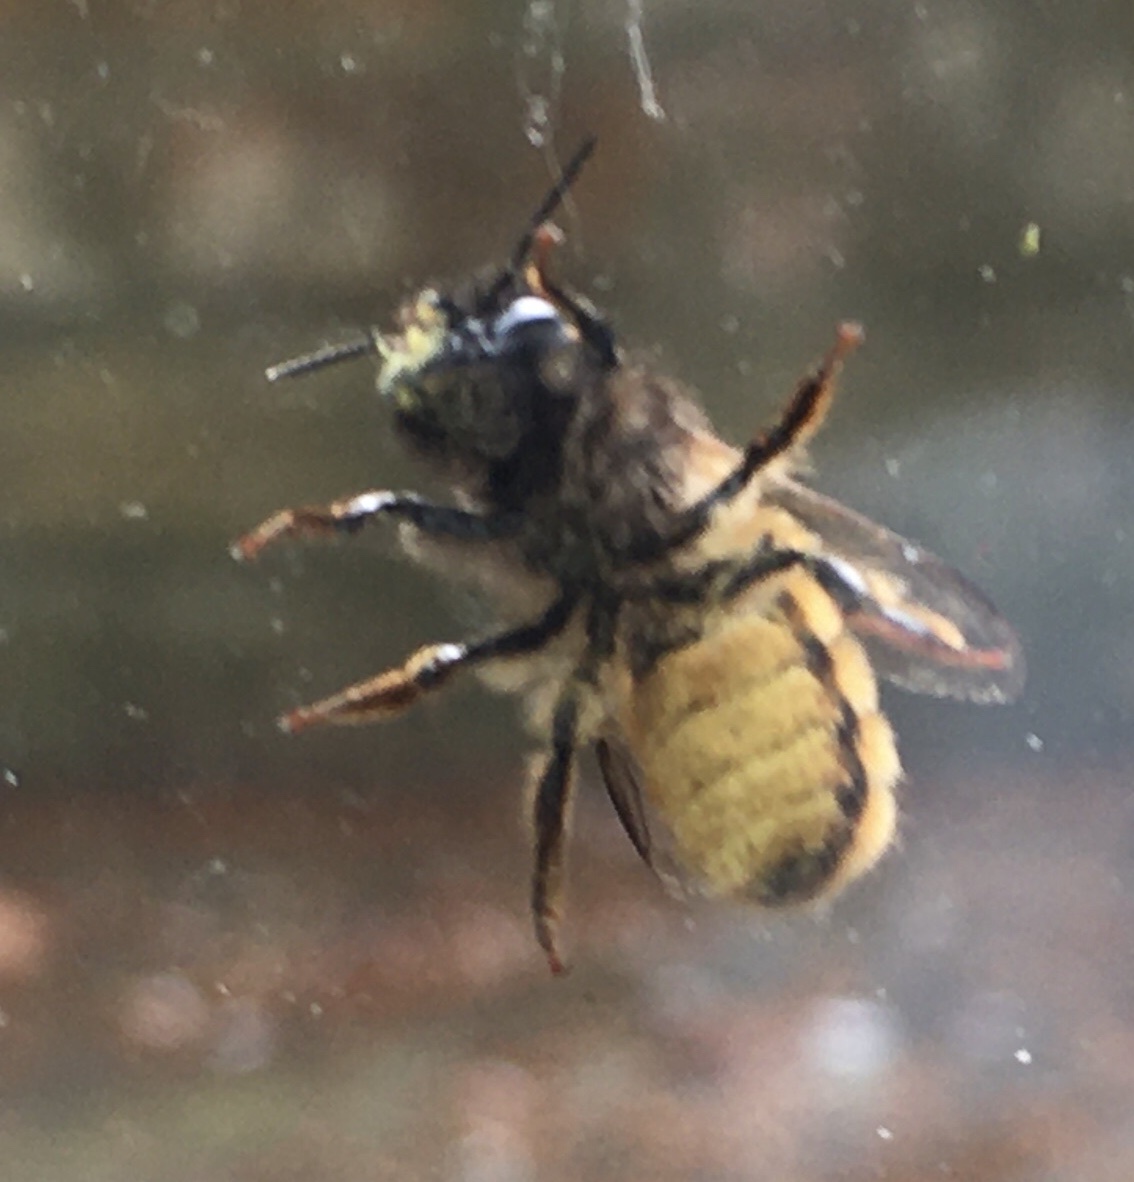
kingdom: Animalia
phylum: Arthropoda
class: Insecta
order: Hymenoptera
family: Megachilidae
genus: Osmia
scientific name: Osmia bicornis
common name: Red mason bee
